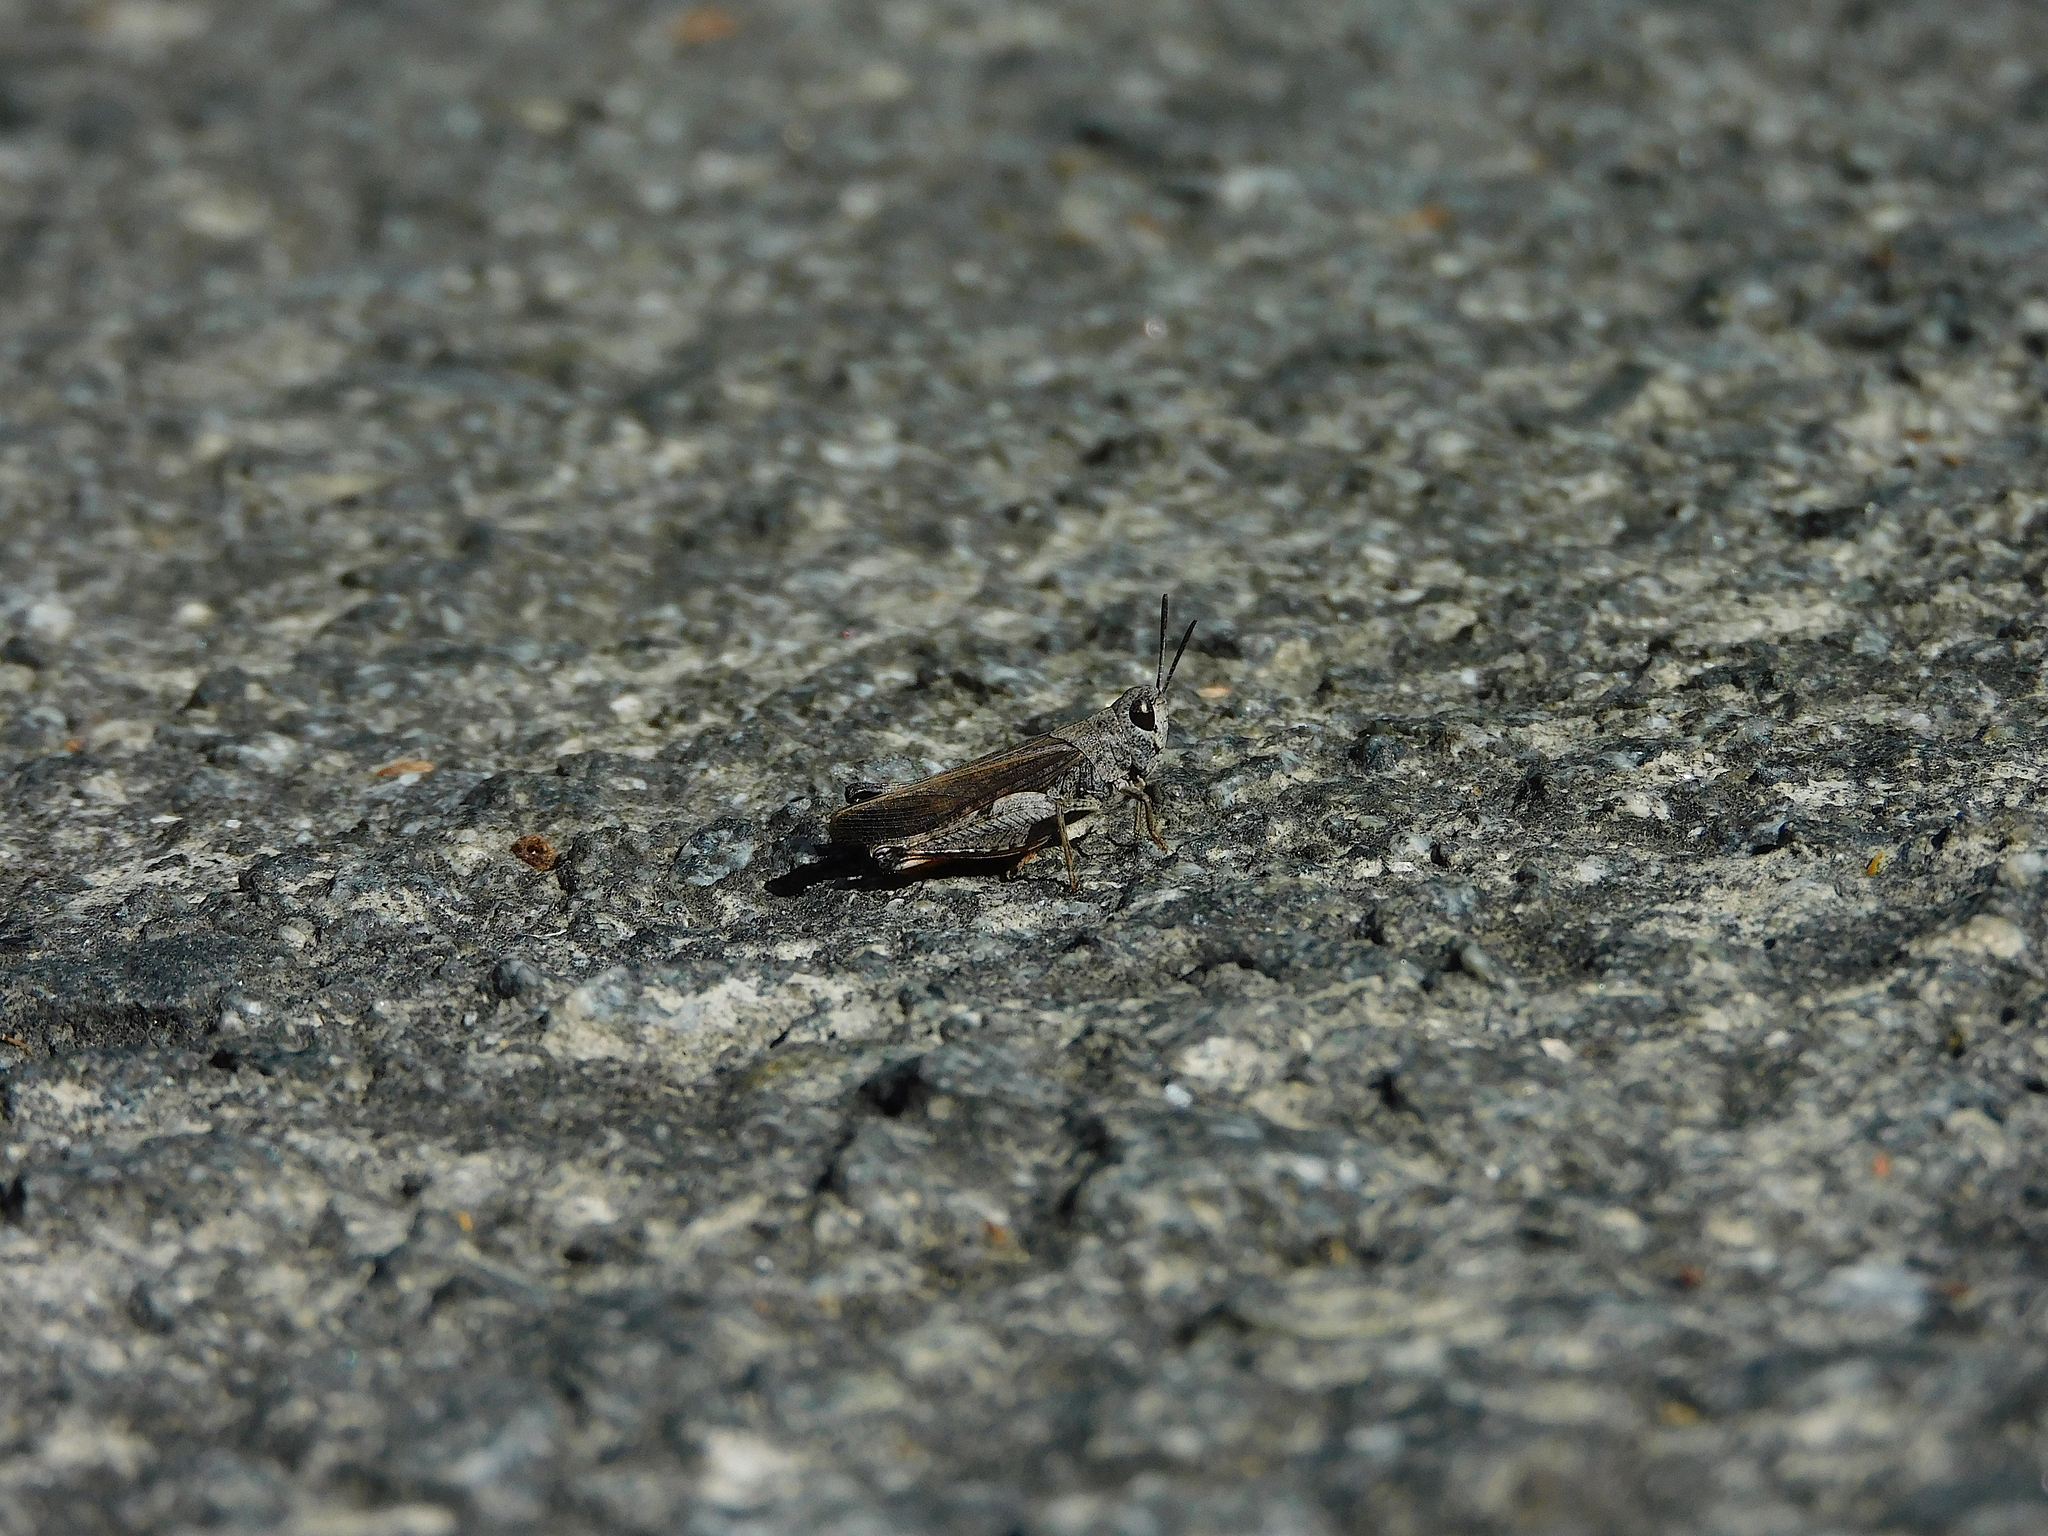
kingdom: Animalia
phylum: Arthropoda
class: Insecta
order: Orthoptera
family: Acrididae
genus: Phaulacridium
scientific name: Phaulacridium vittatum
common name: Wingless grasshopper
